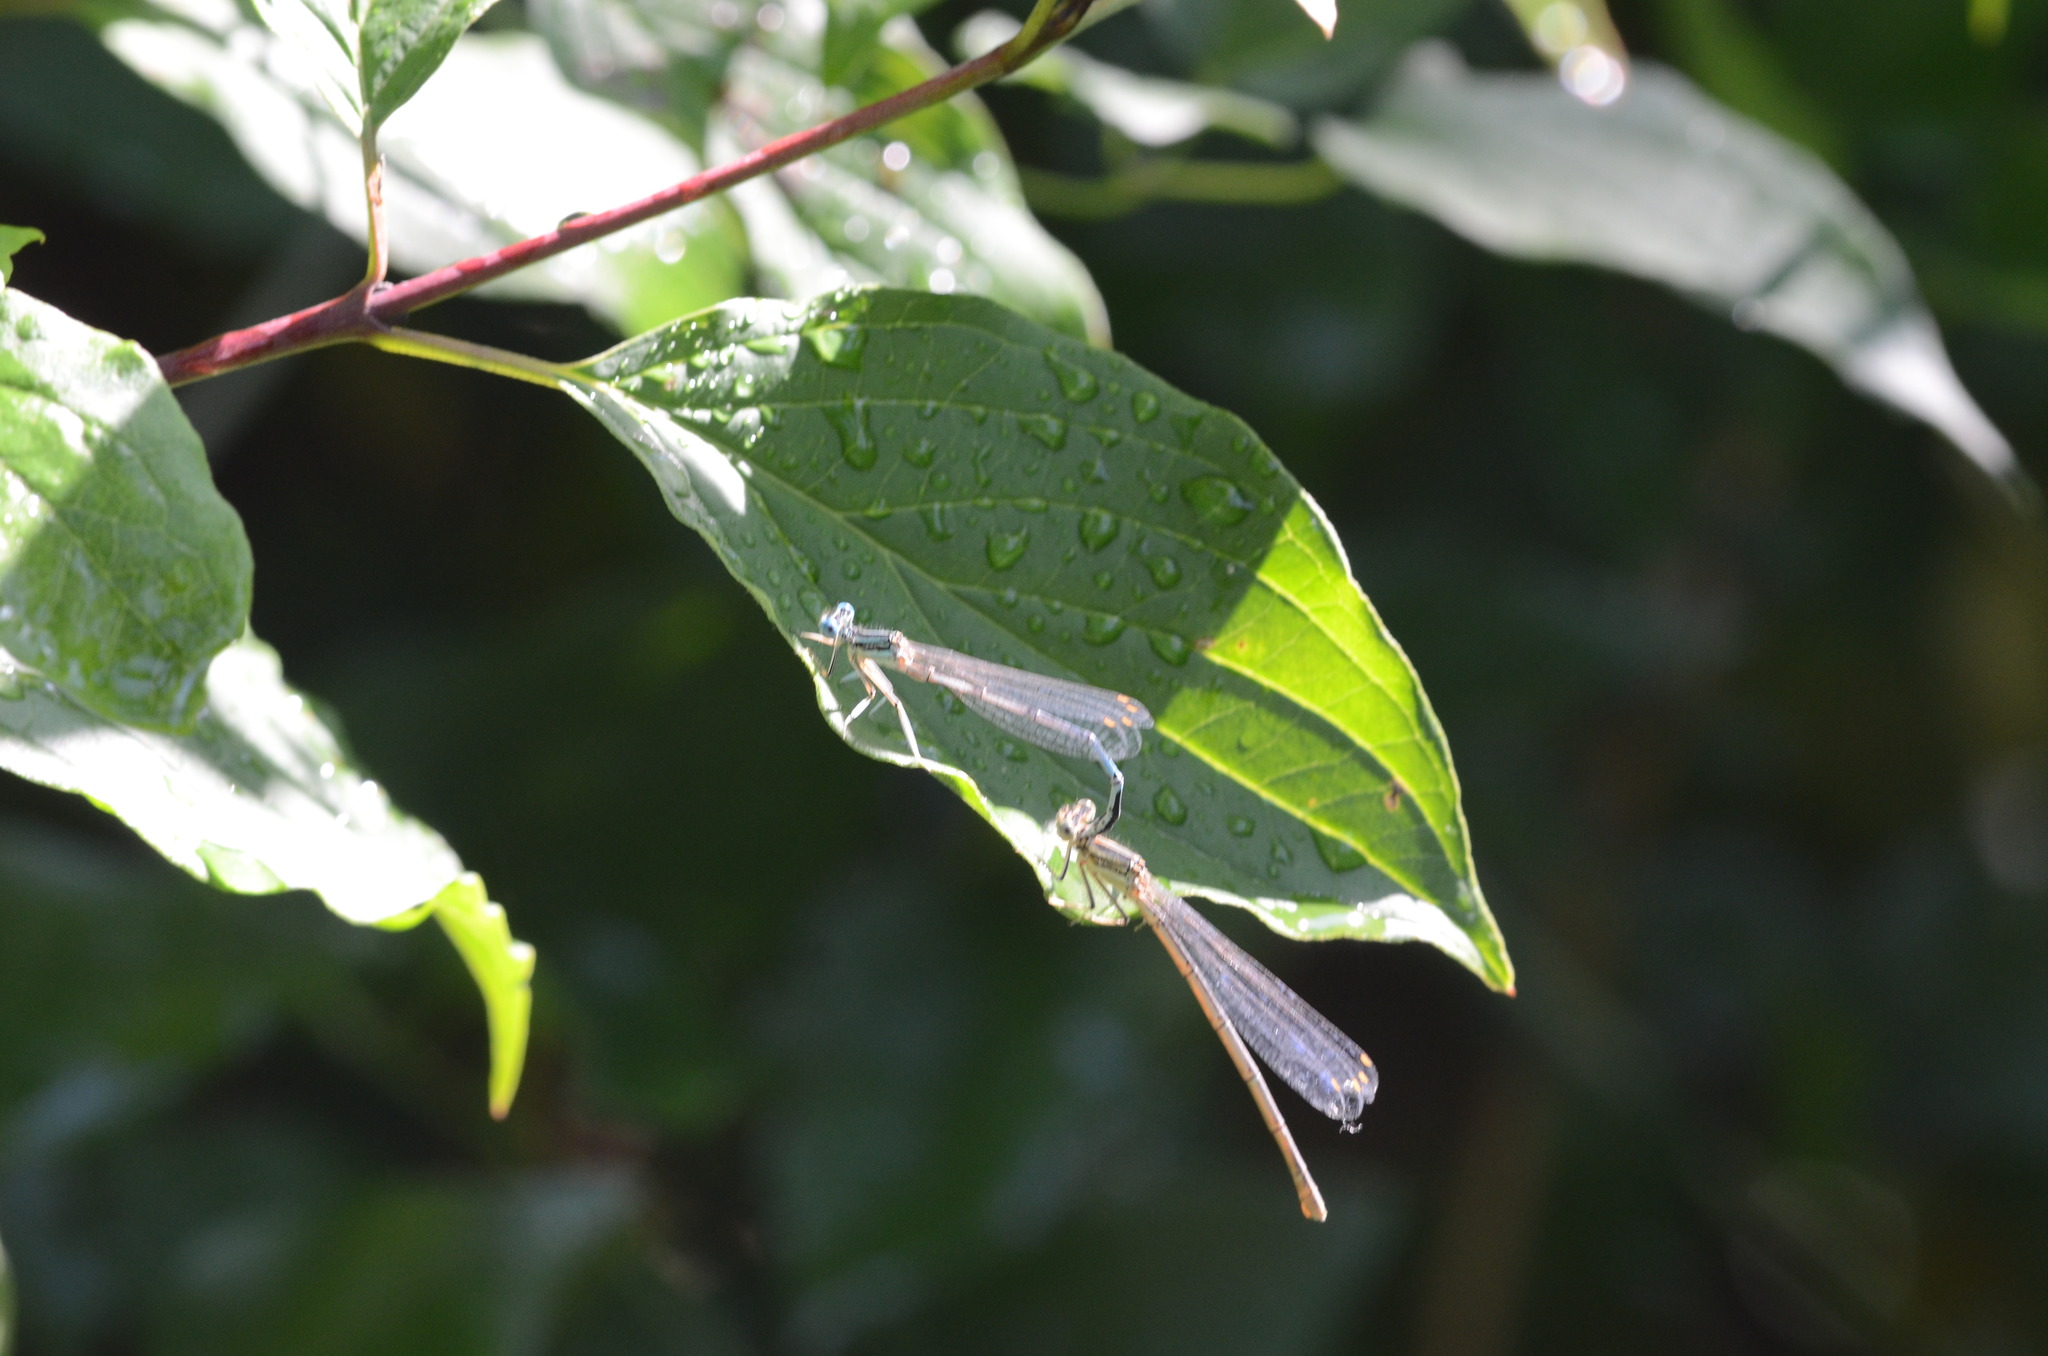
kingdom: Animalia
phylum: Arthropoda
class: Insecta
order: Odonata
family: Platycnemididae
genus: Platycnemis
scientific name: Platycnemis pennipes
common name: White-legged damselfly
